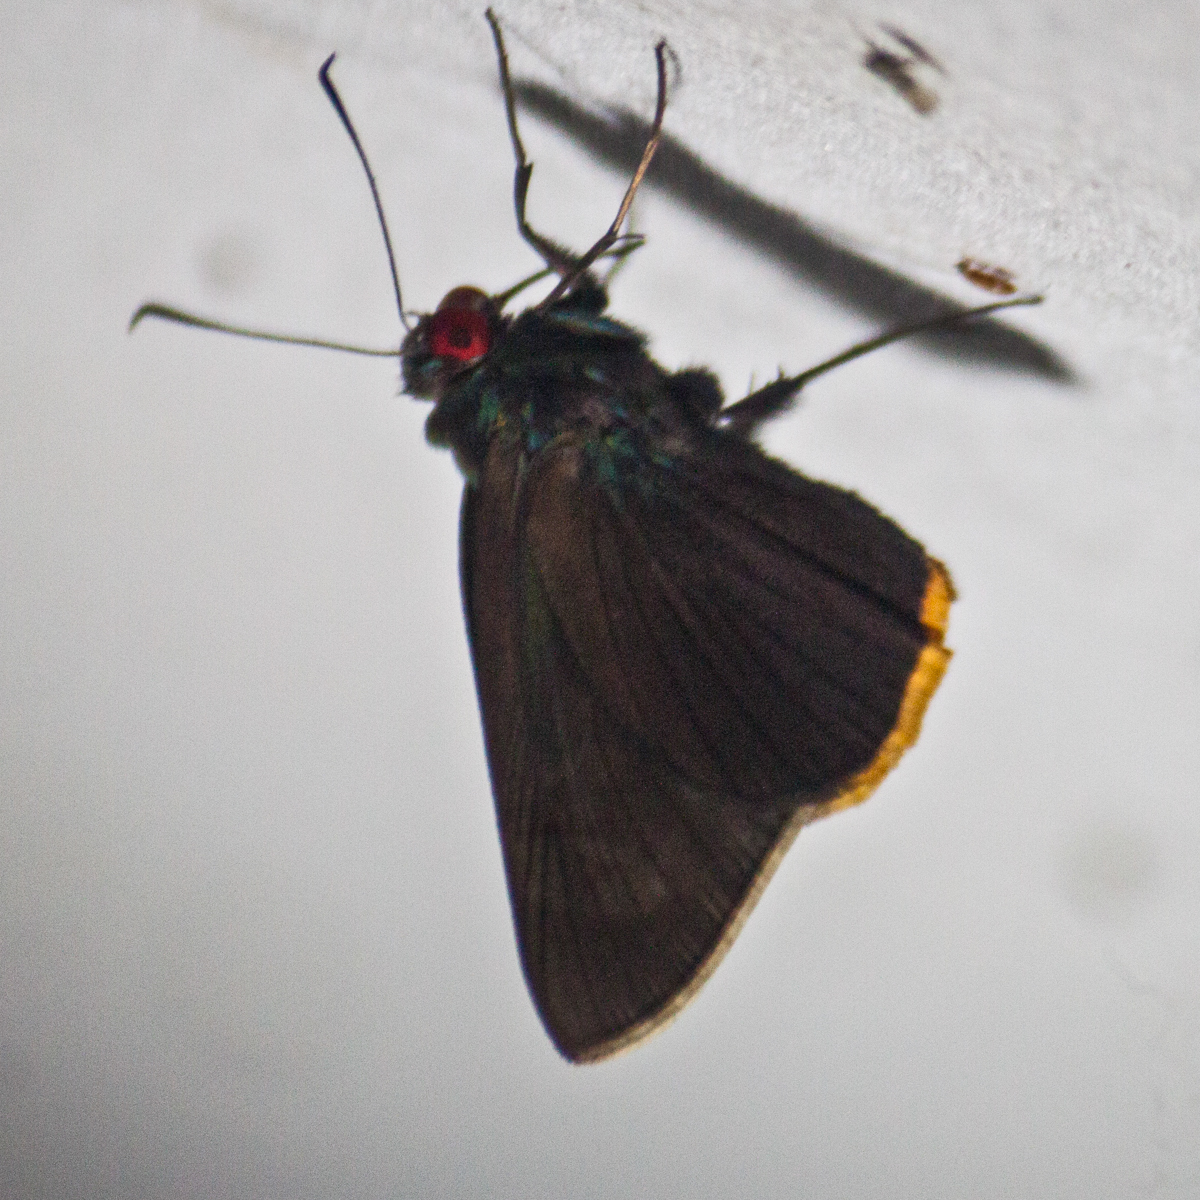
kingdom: Animalia
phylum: Arthropoda
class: Insecta
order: Lepidoptera
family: Hesperiidae
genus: Matapa
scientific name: Matapa sasivarna
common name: Black-veined redeye
